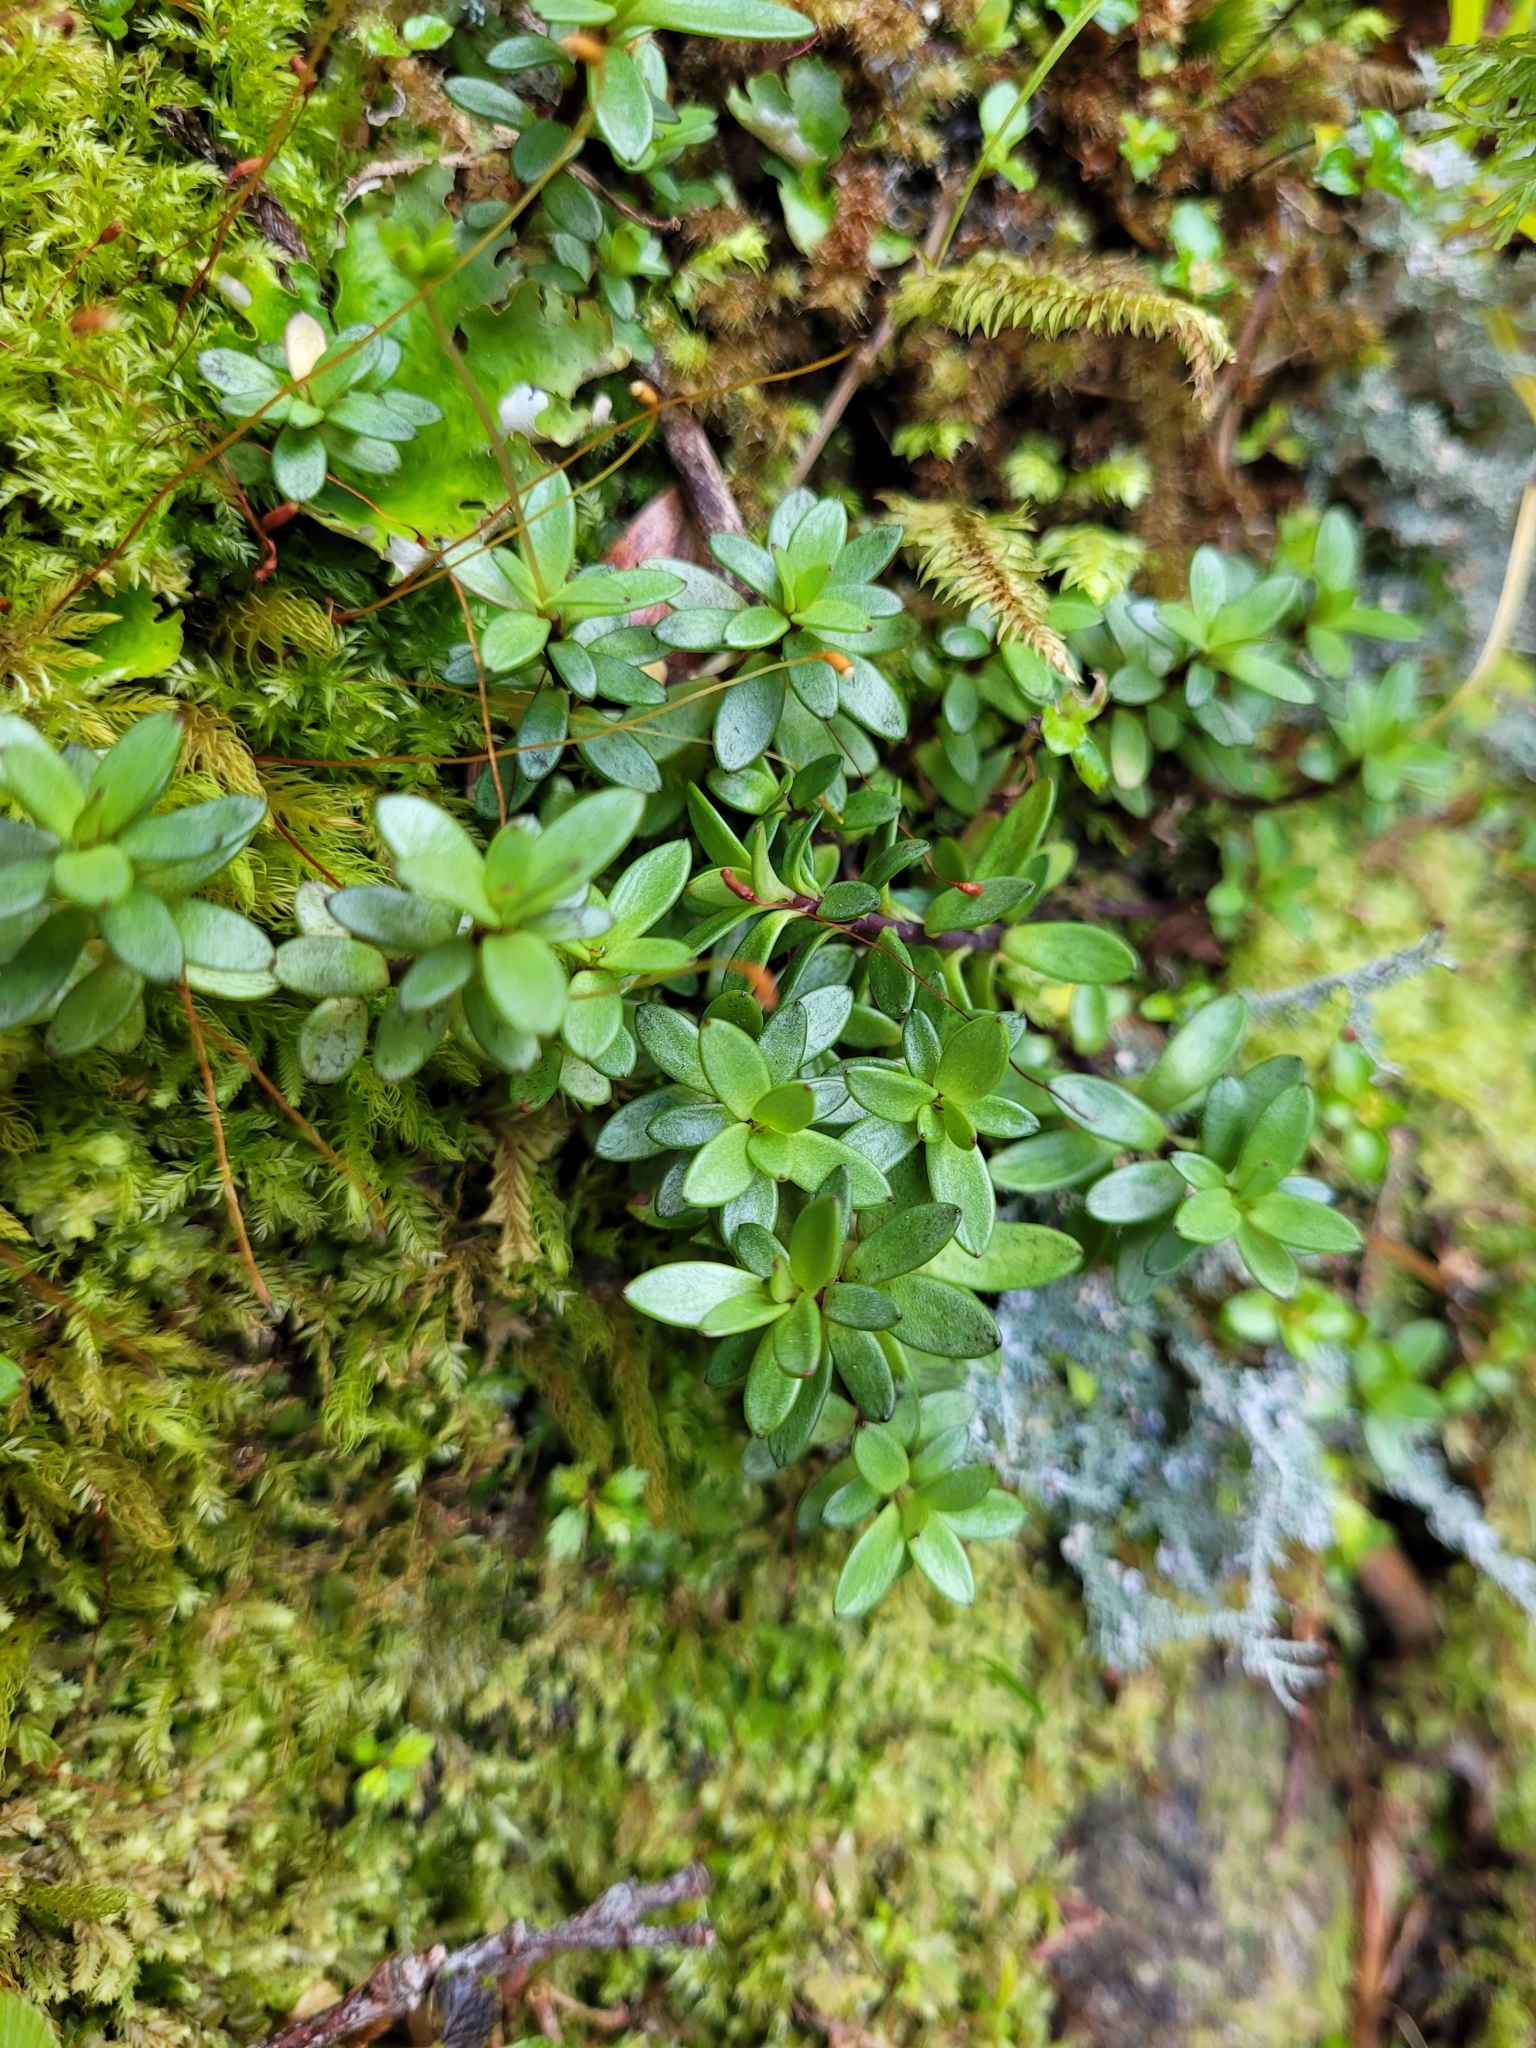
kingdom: Plantae
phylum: Tracheophyta
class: Magnoliopsida
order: Asterales
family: Stylidiaceae
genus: Forstera
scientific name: Forstera tenella
